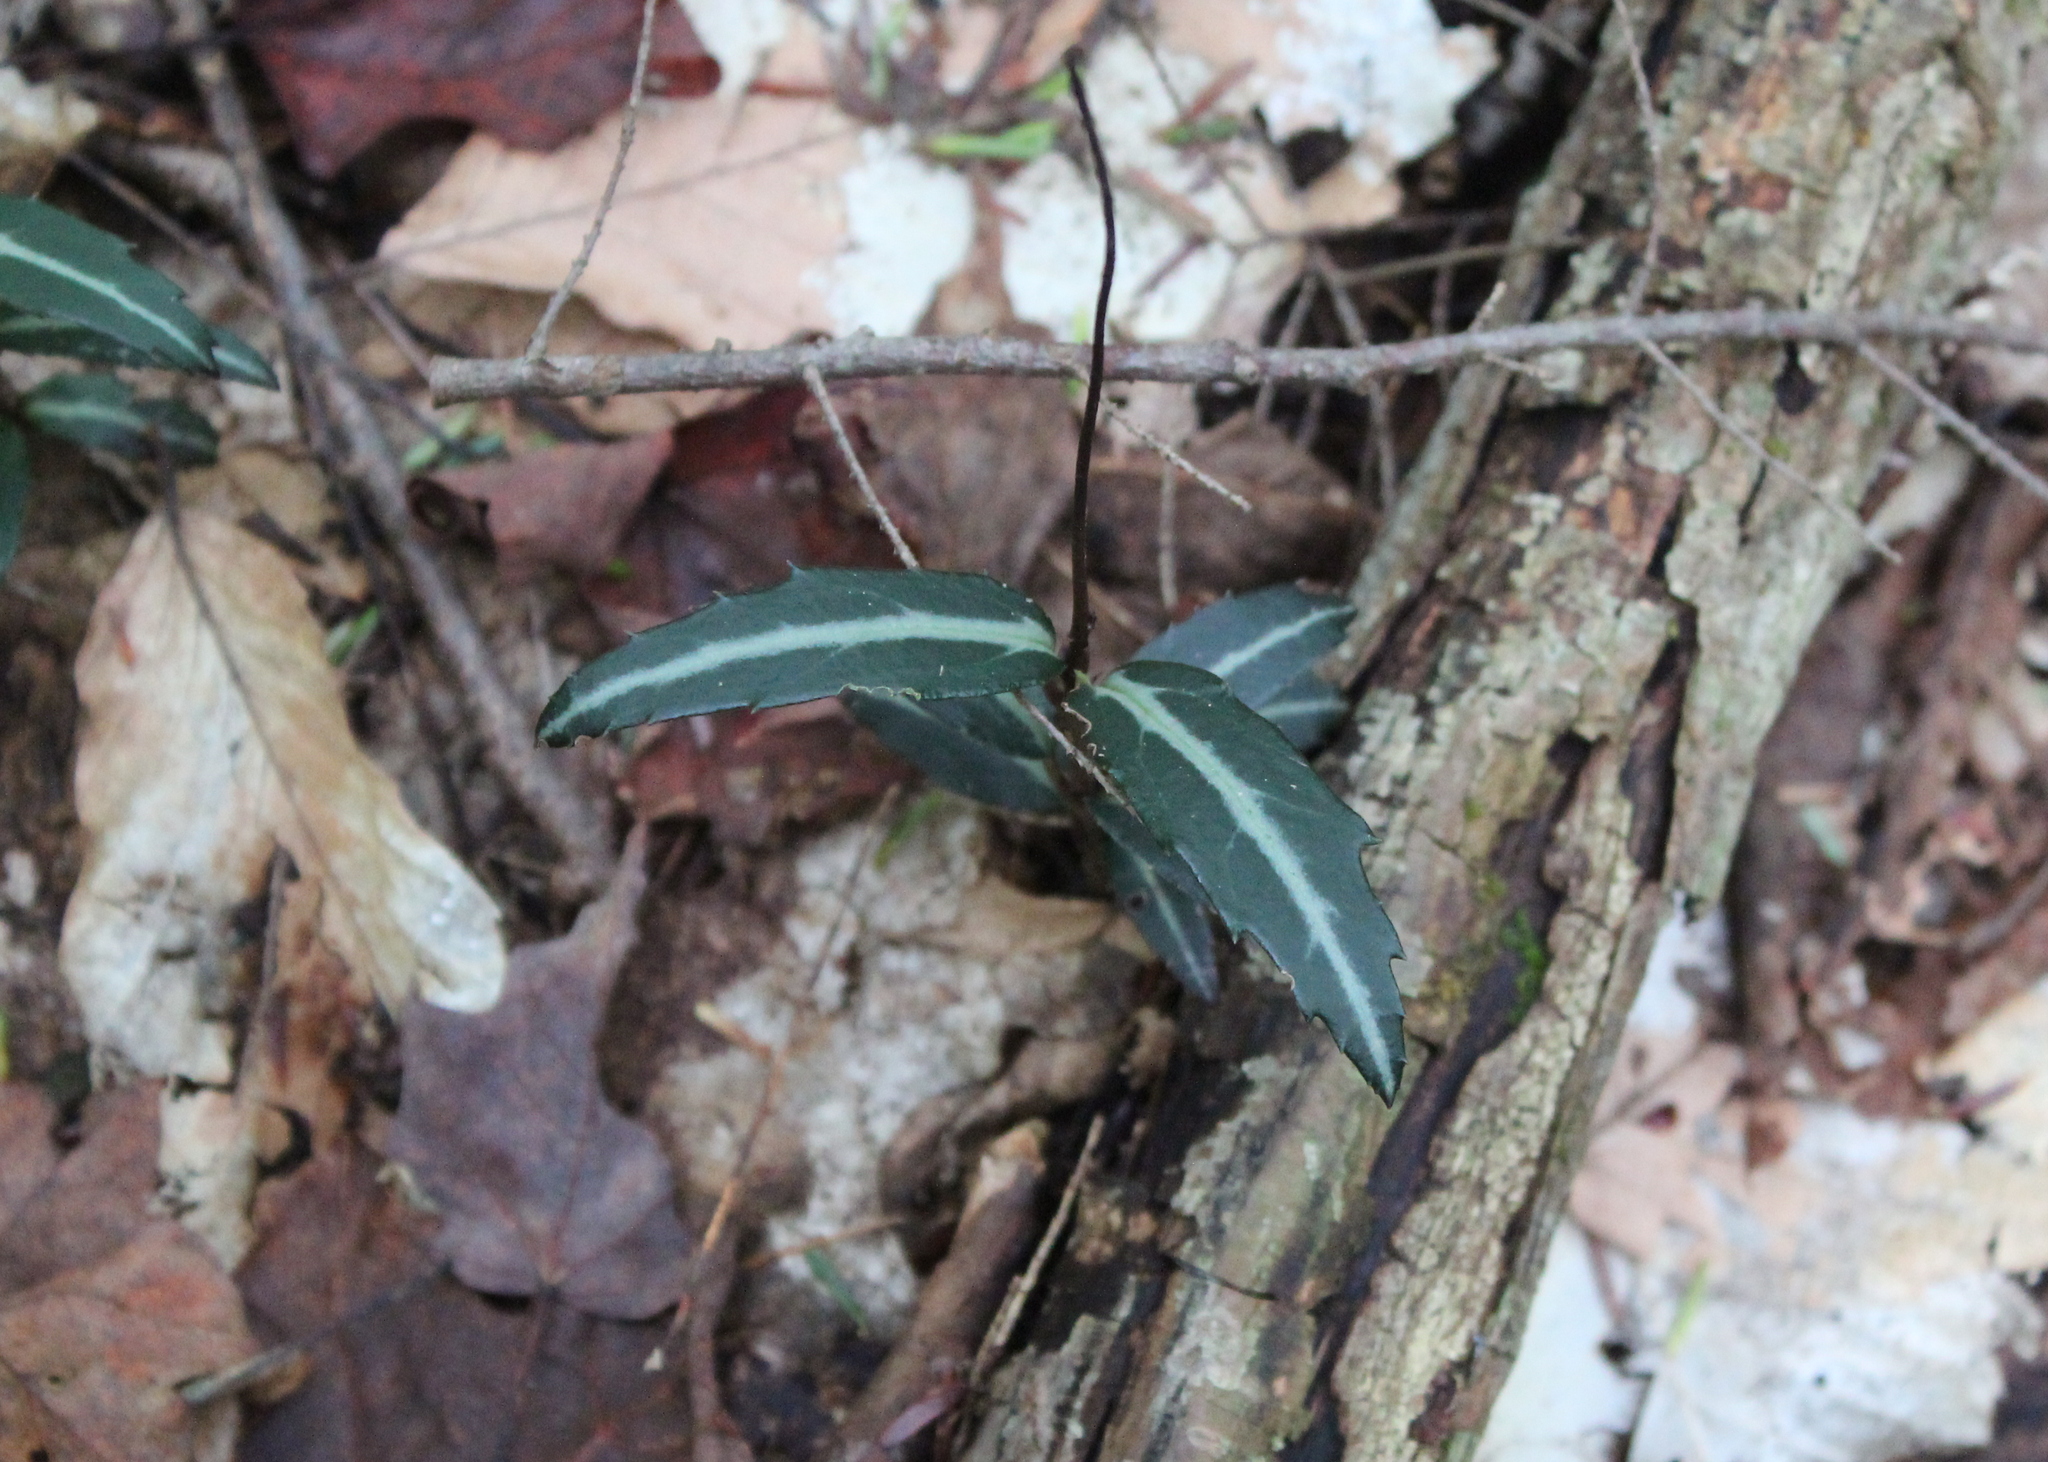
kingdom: Plantae
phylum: Tracheophyta
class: Magnoliopsida
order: Ericales
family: Ericaceae
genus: Chimaphila
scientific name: Chimaphila maculata
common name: Spotted pipsissewa
